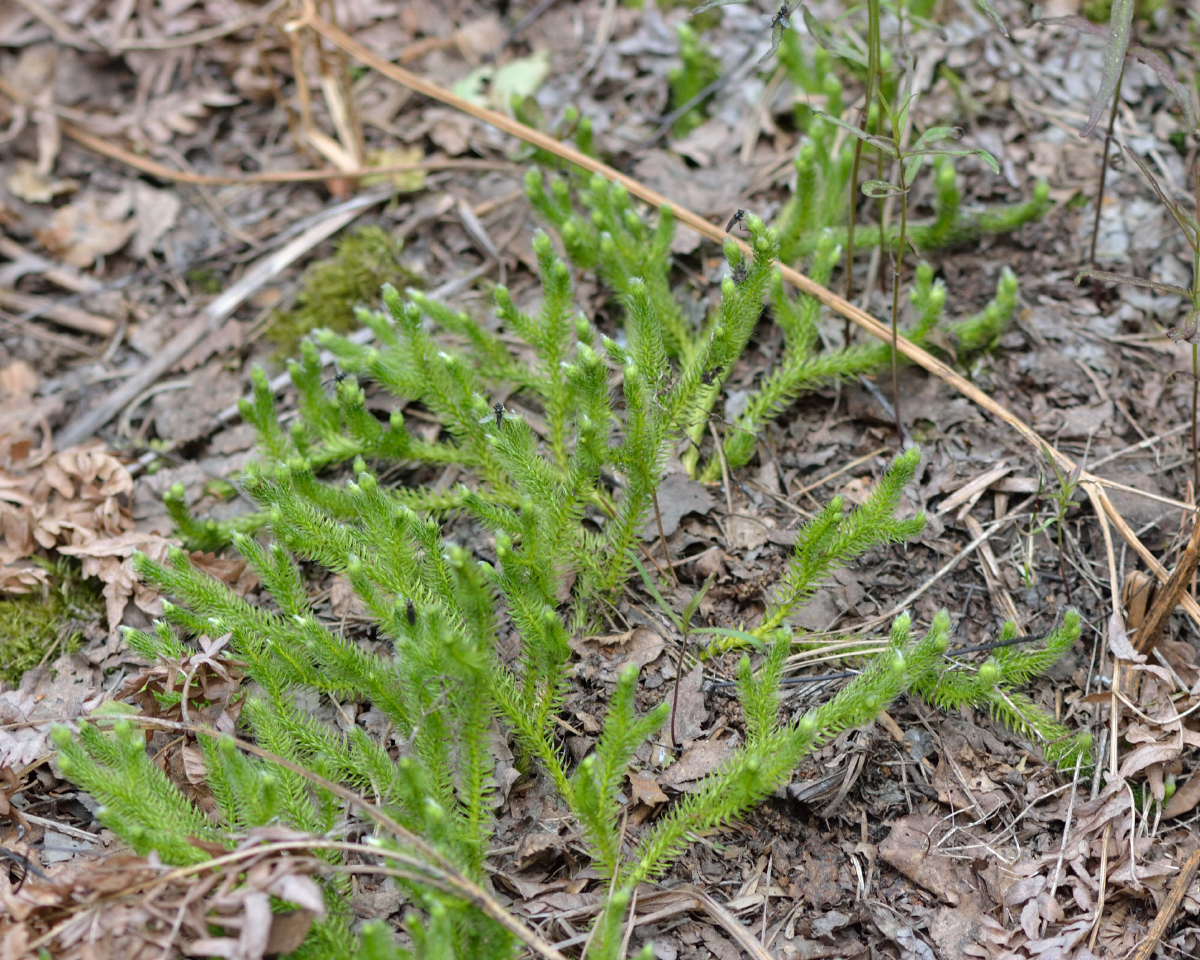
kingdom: Plantae
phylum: Tracheophyta
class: Lycopodiopsida
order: Lycopodiales
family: Lycopodiaceae
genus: Lycopodium
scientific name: Lycopodium clavatum
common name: Stag's-horn clubmoss
